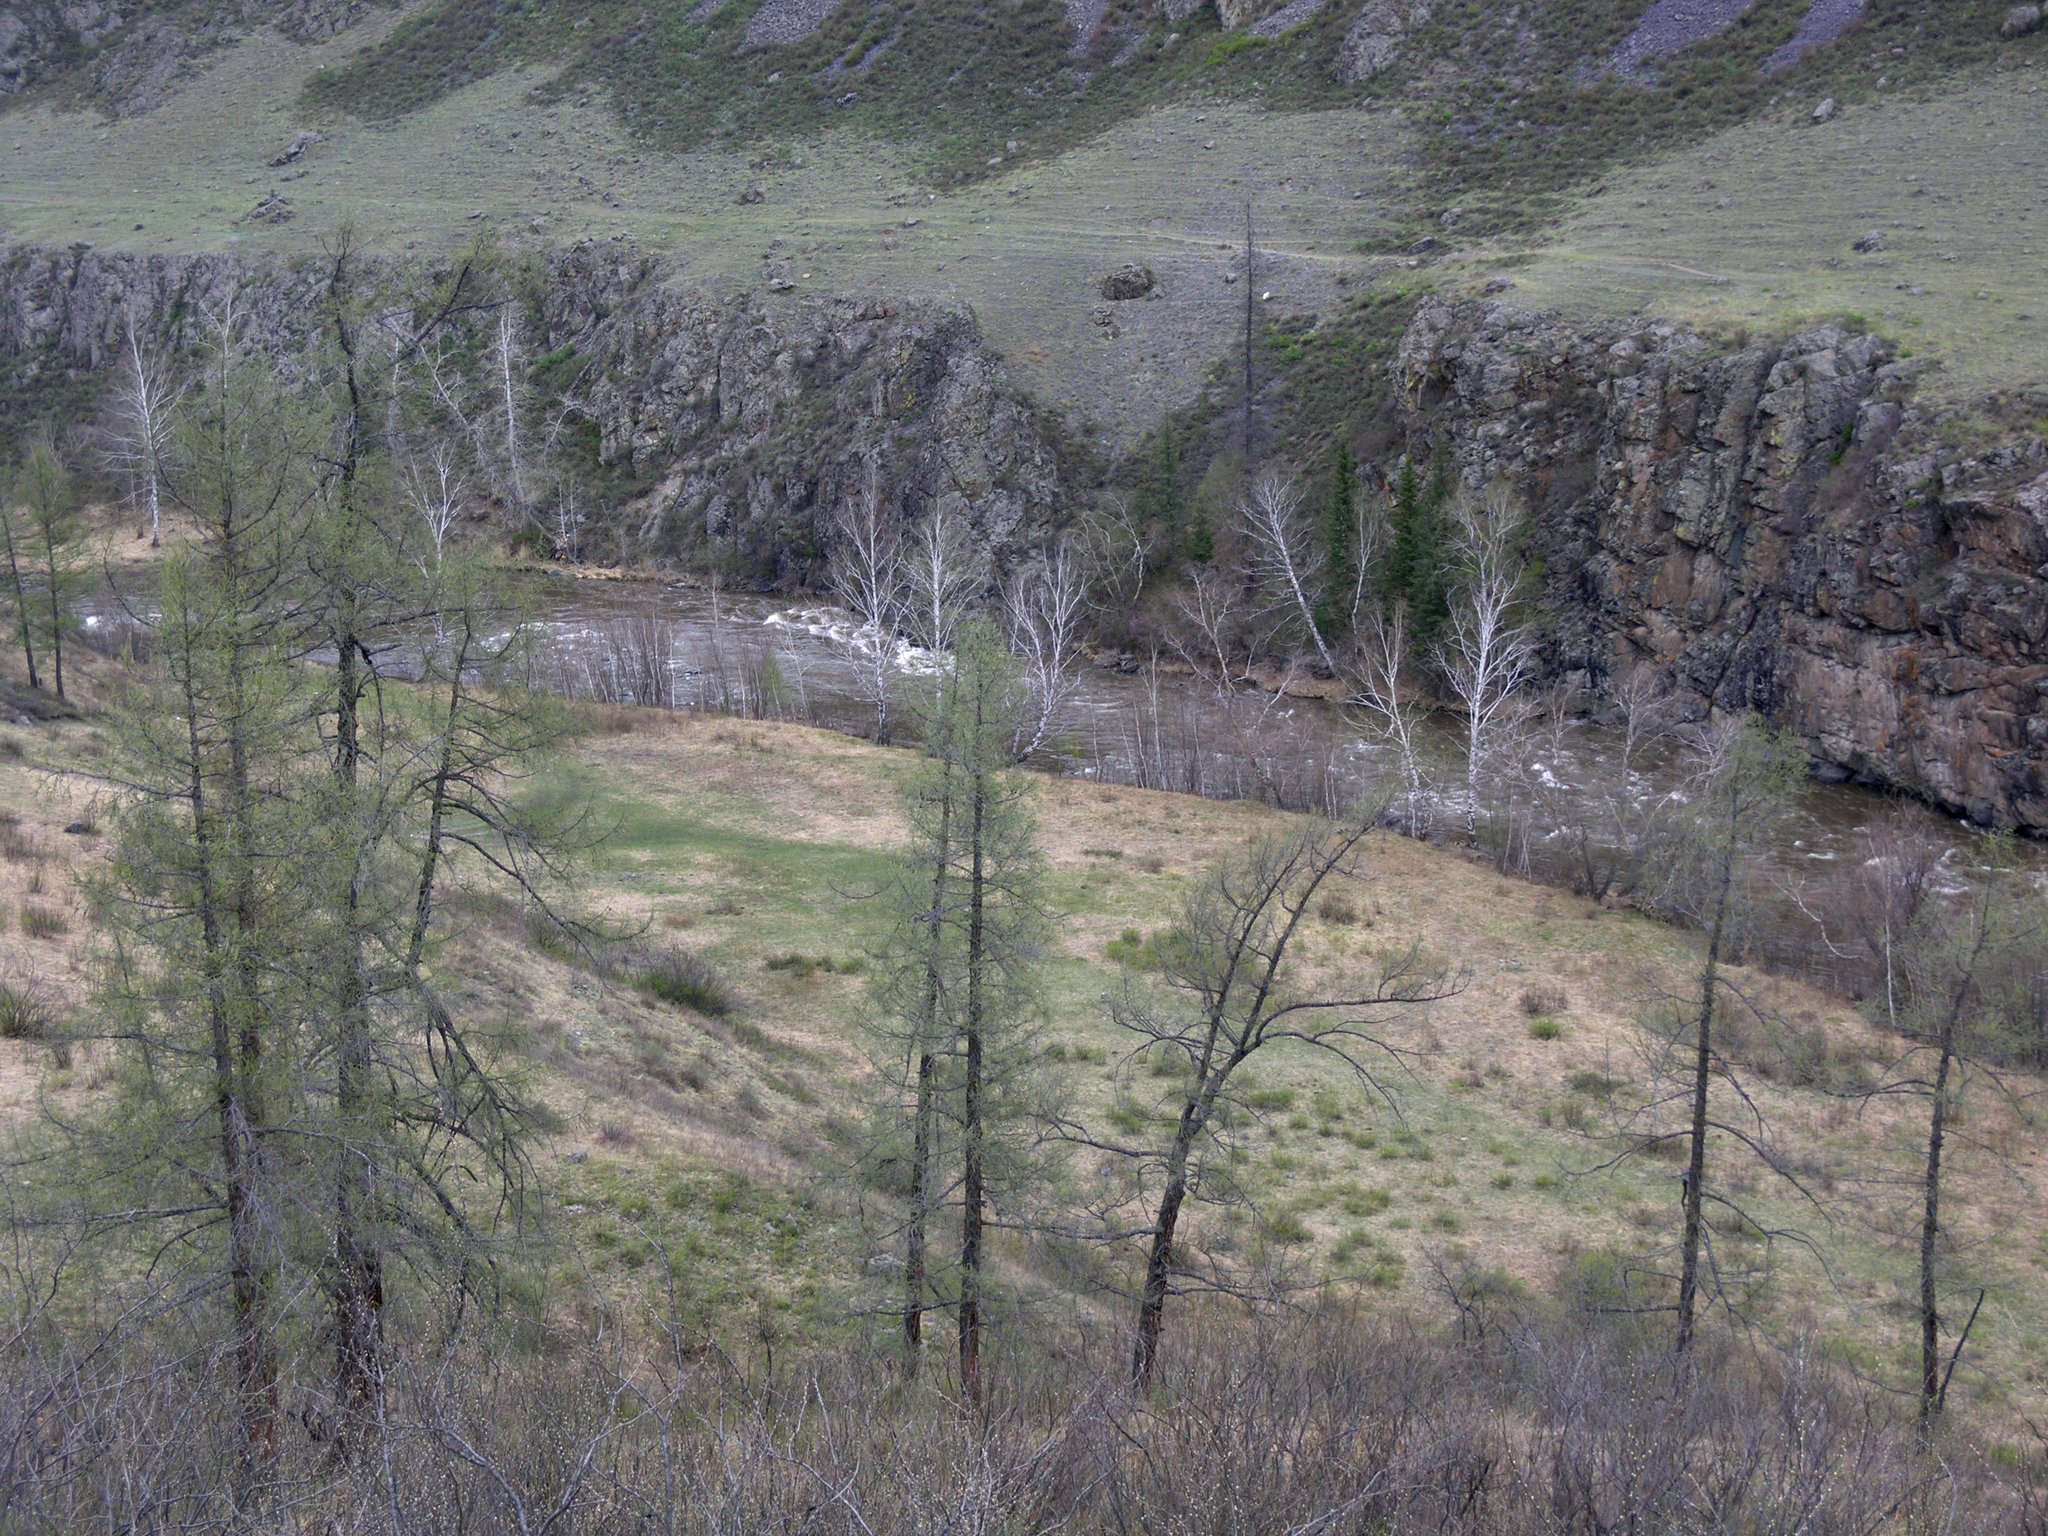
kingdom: Plantae
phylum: Tracheophyta
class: Pinopsida
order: Pinales
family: Pinaceae
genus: Larix
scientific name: Larix sibirica
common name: Siberian larch
